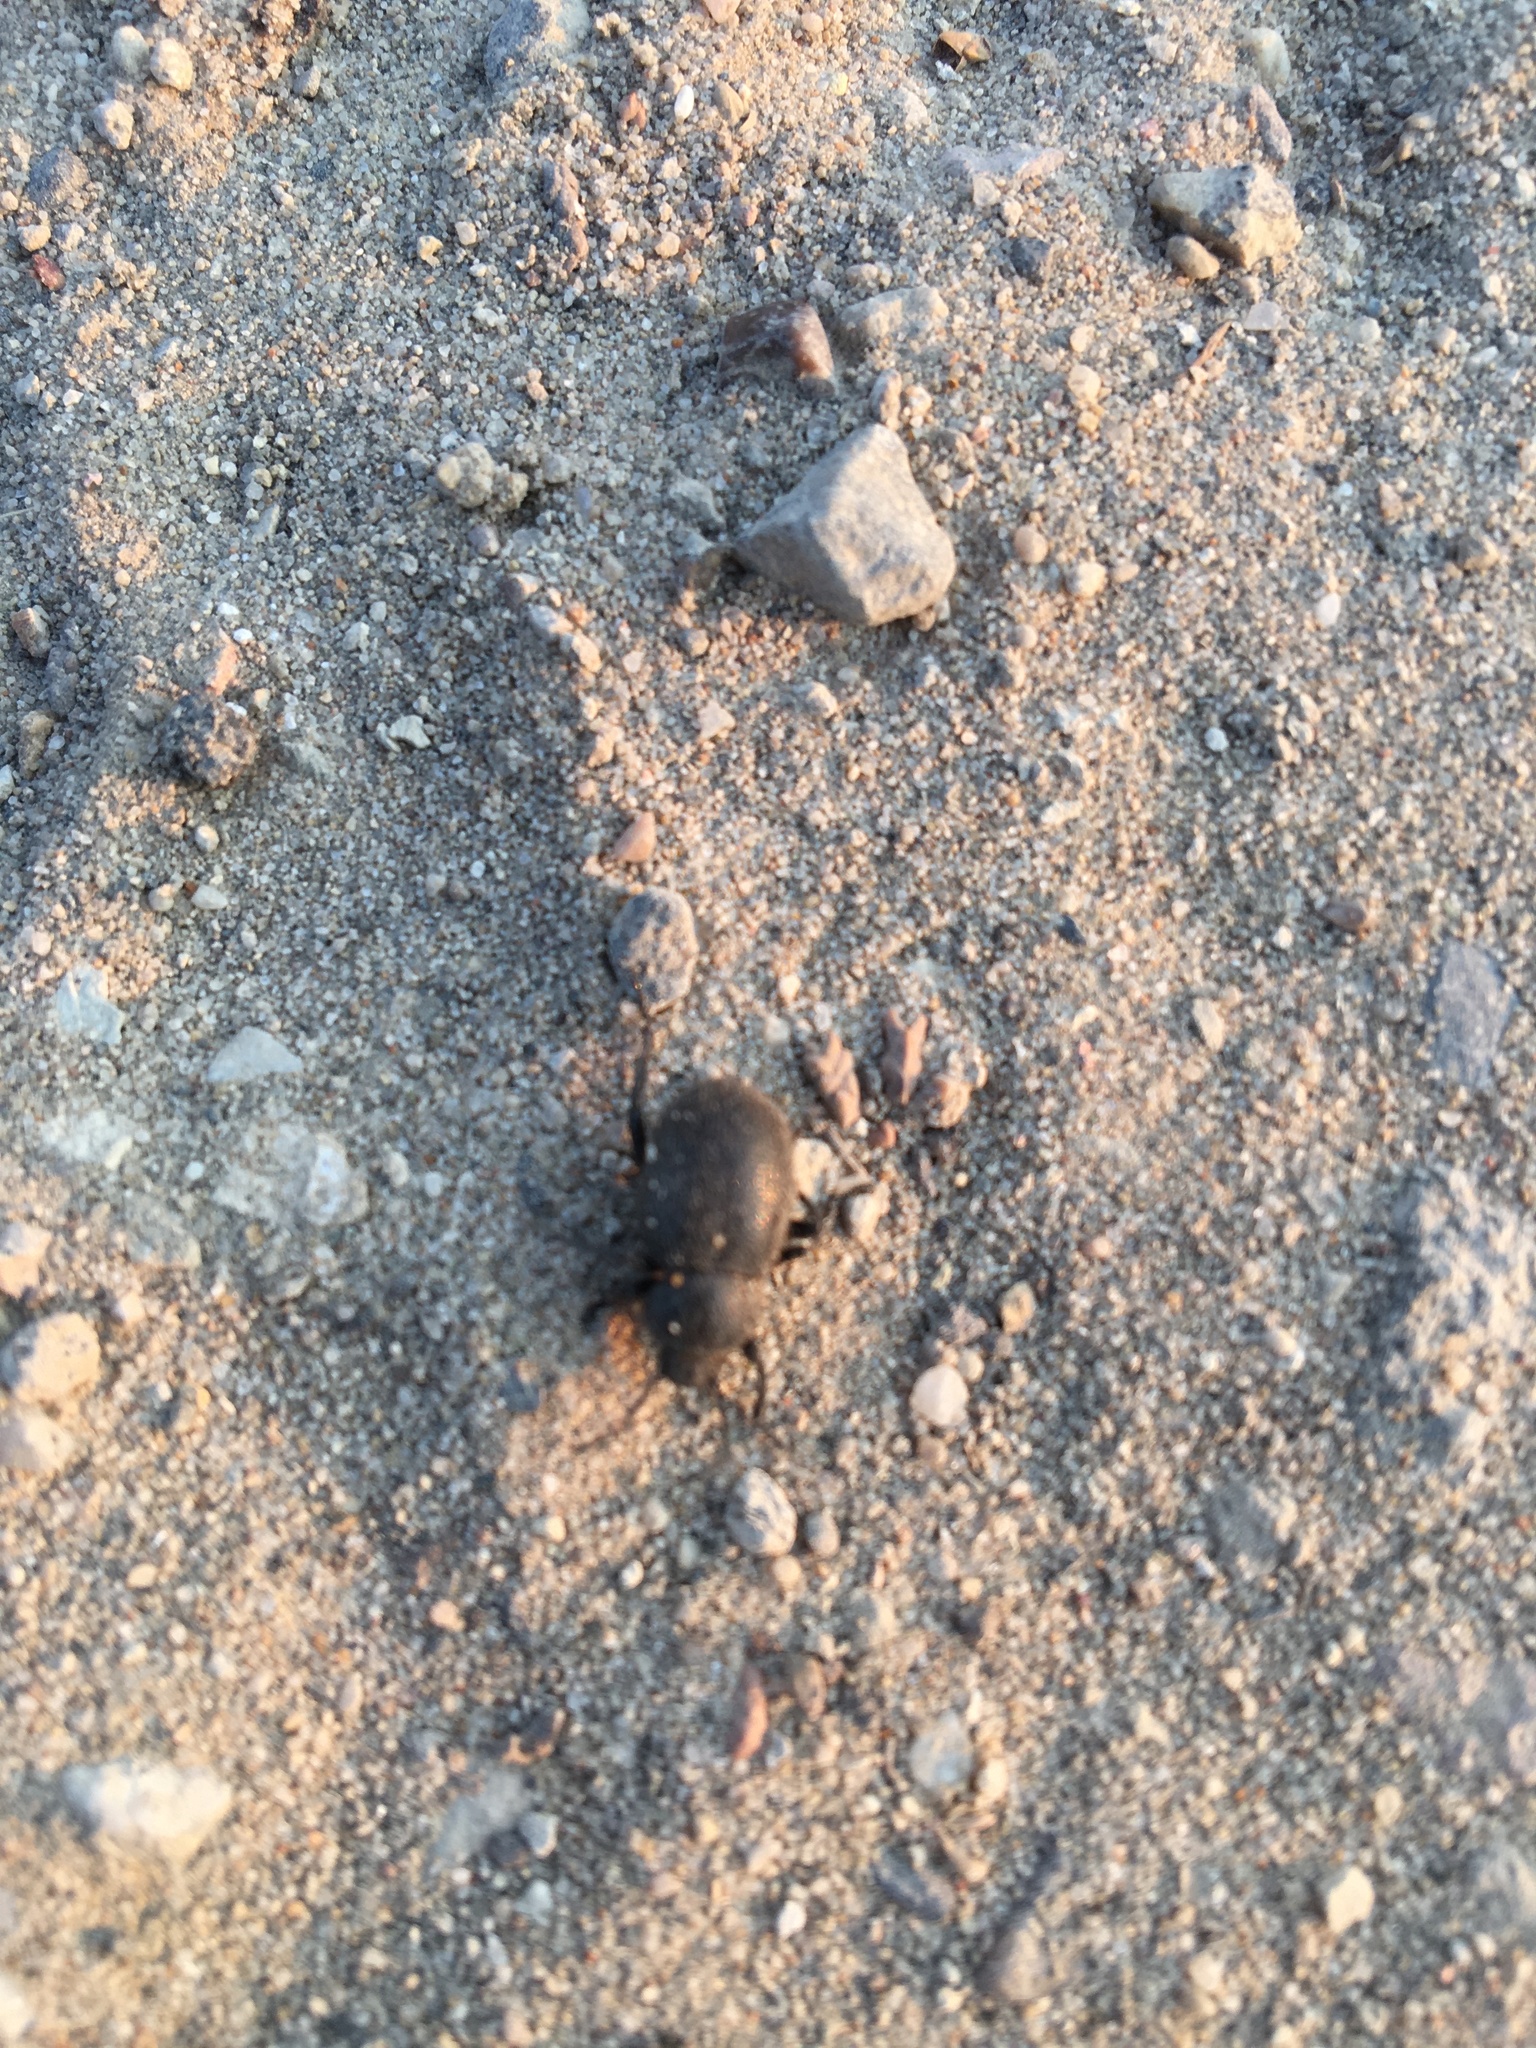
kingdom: Animalia
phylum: Arthropoda
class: Insecta
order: Coleoptera
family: Tenebrionidae
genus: Eleodes
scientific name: Eleodes osculans
